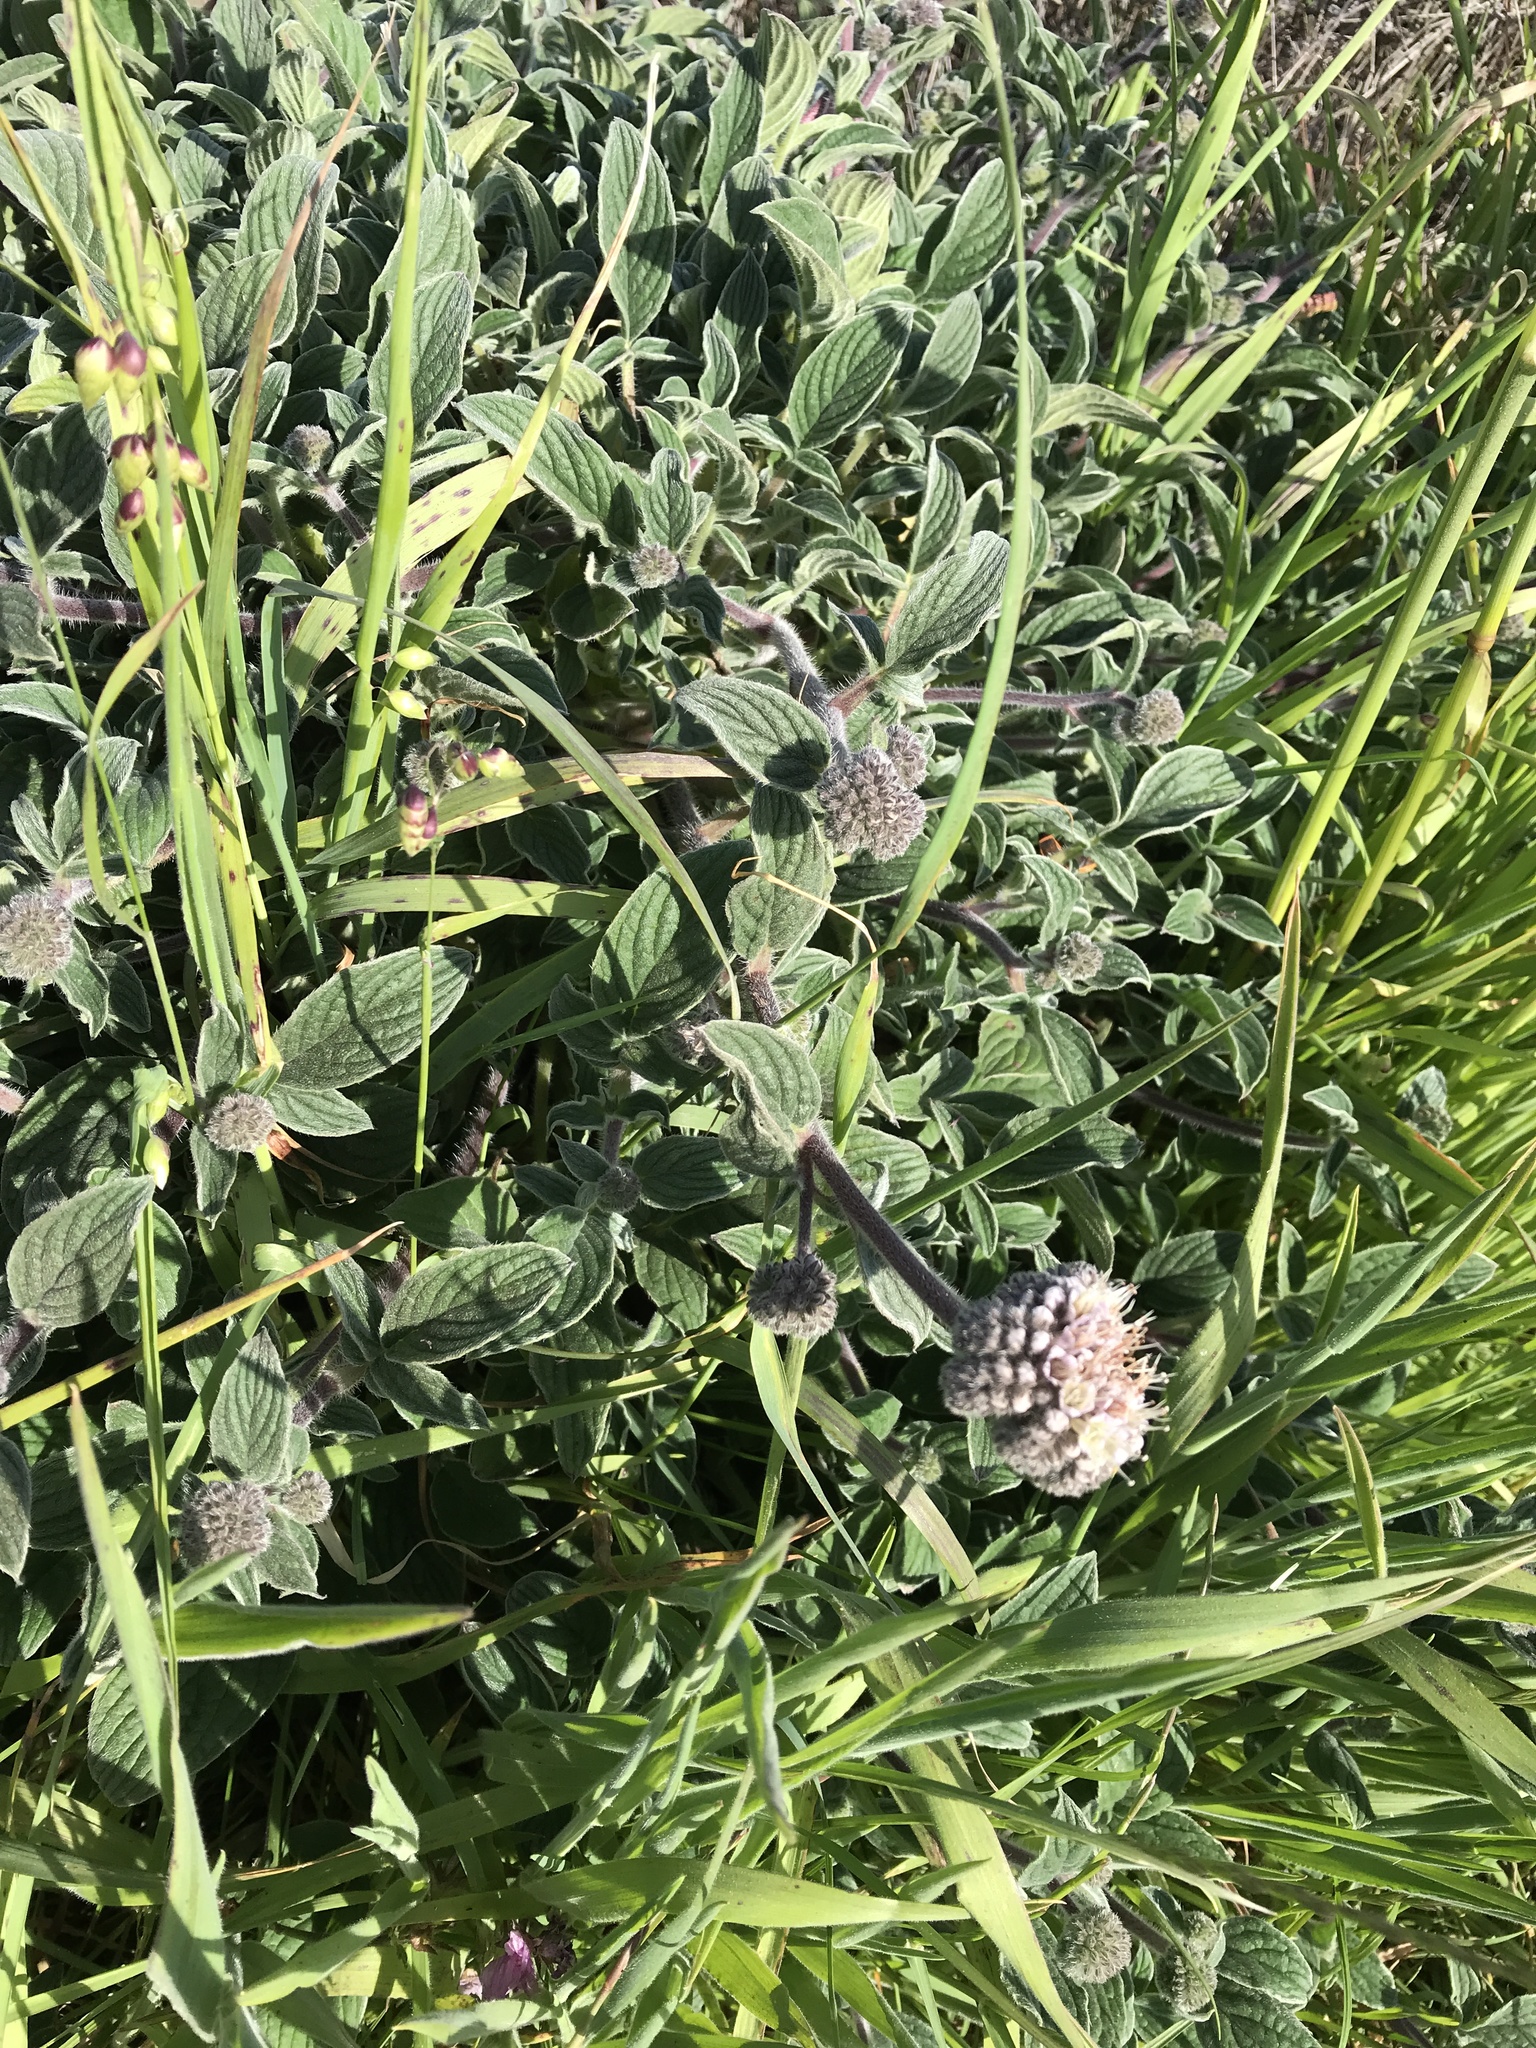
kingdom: Plantae
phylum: Tracheophyta
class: Magnoliopsida
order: Boraginales
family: Hydrophyllaceae
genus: Phacelia
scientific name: Phacelia californica
